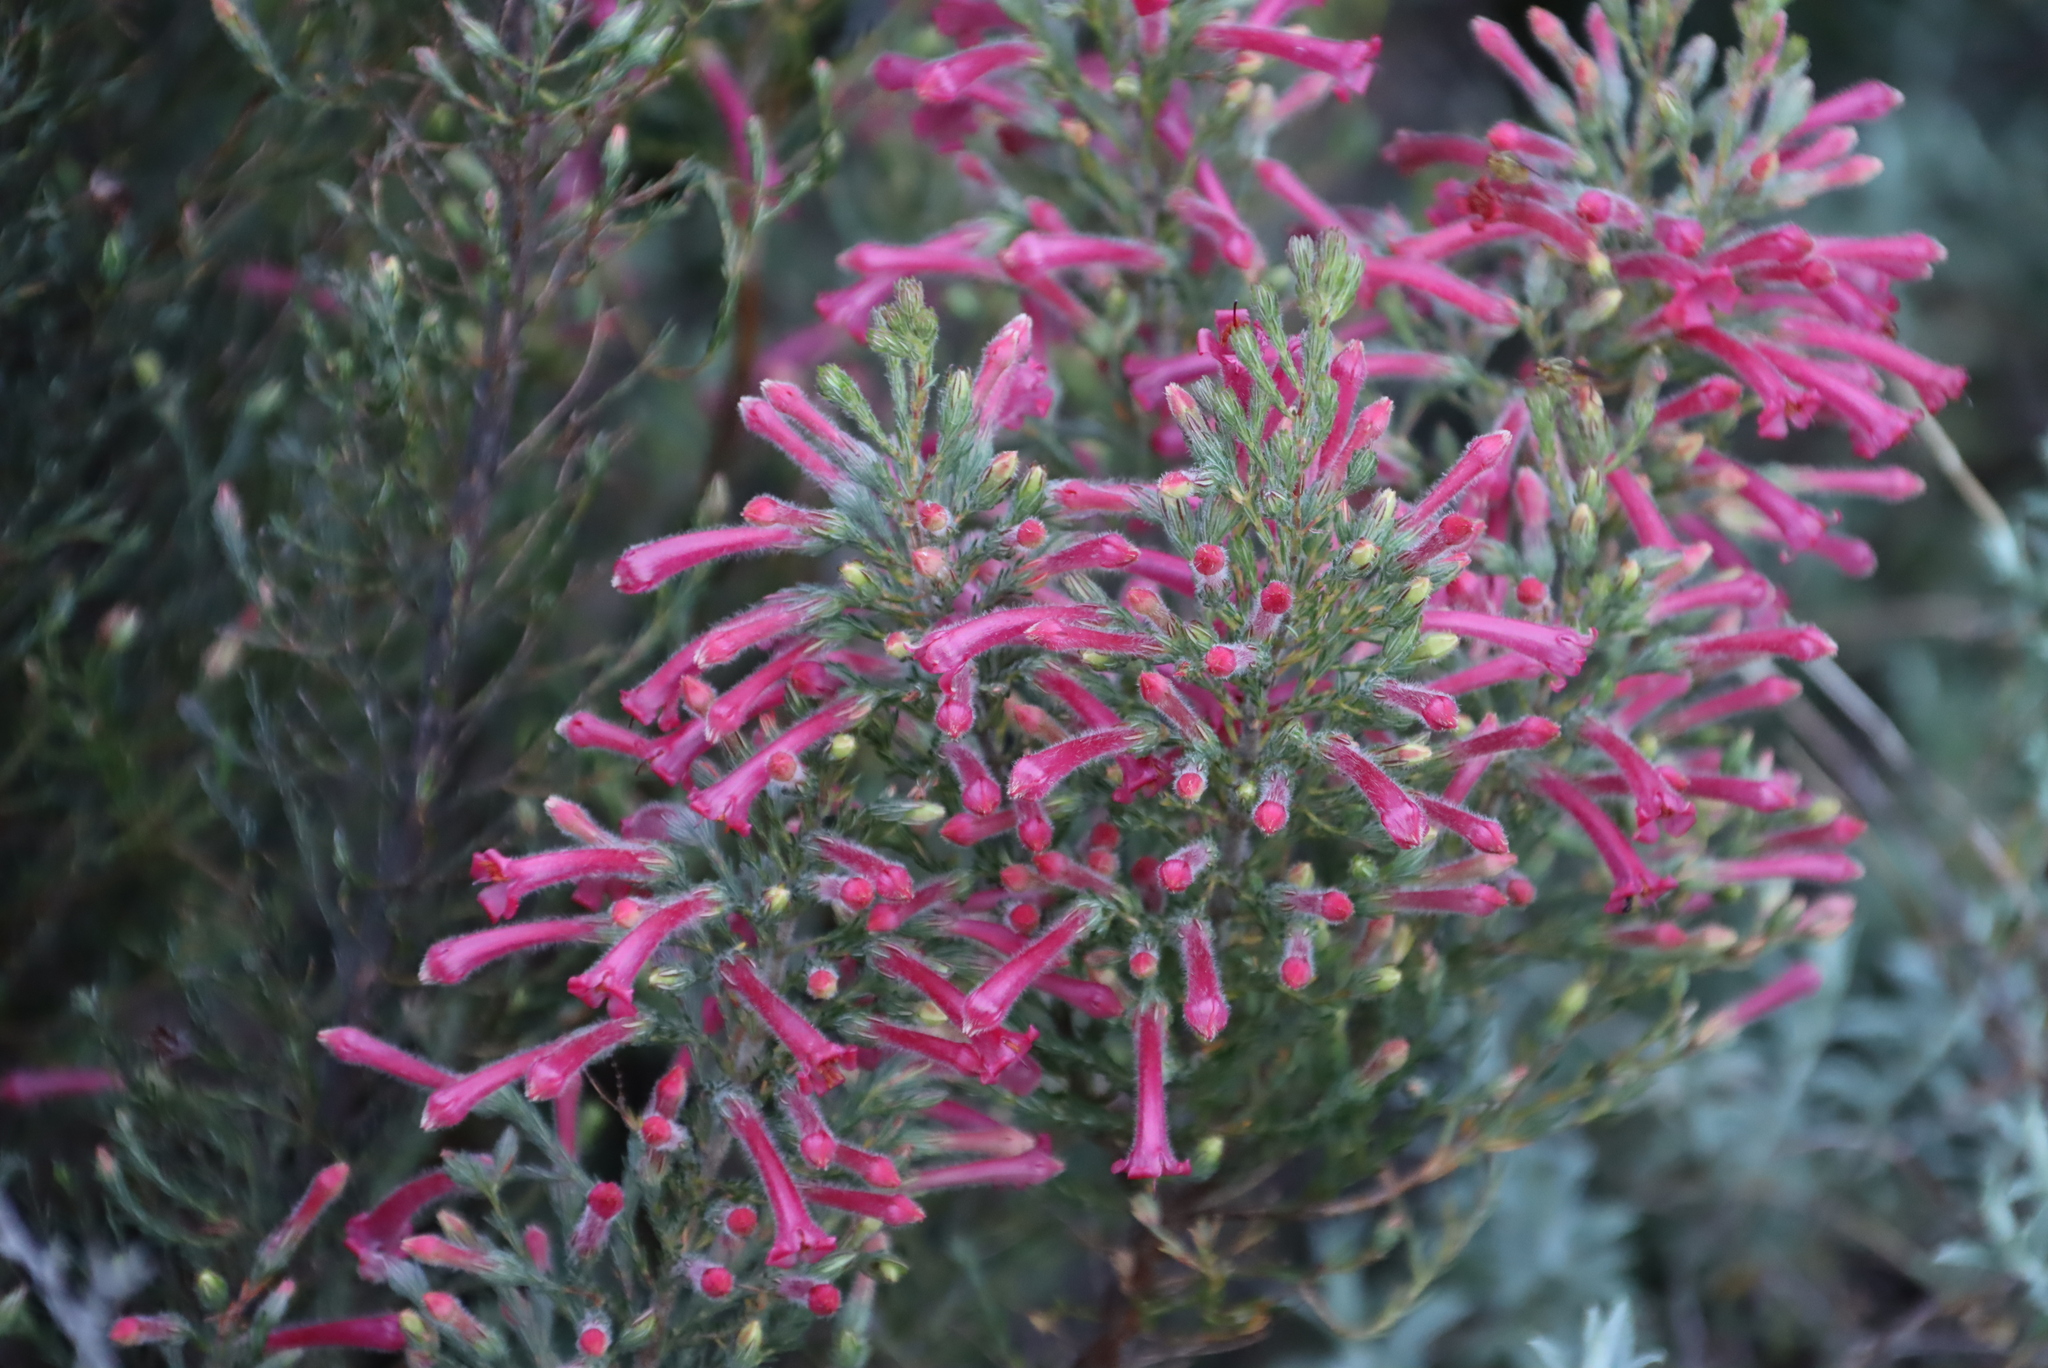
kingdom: Plantae
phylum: Tracheophyta
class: Magnoliopsida
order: Ericales
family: Ericaceae
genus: Erica
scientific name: Erica curviflora
